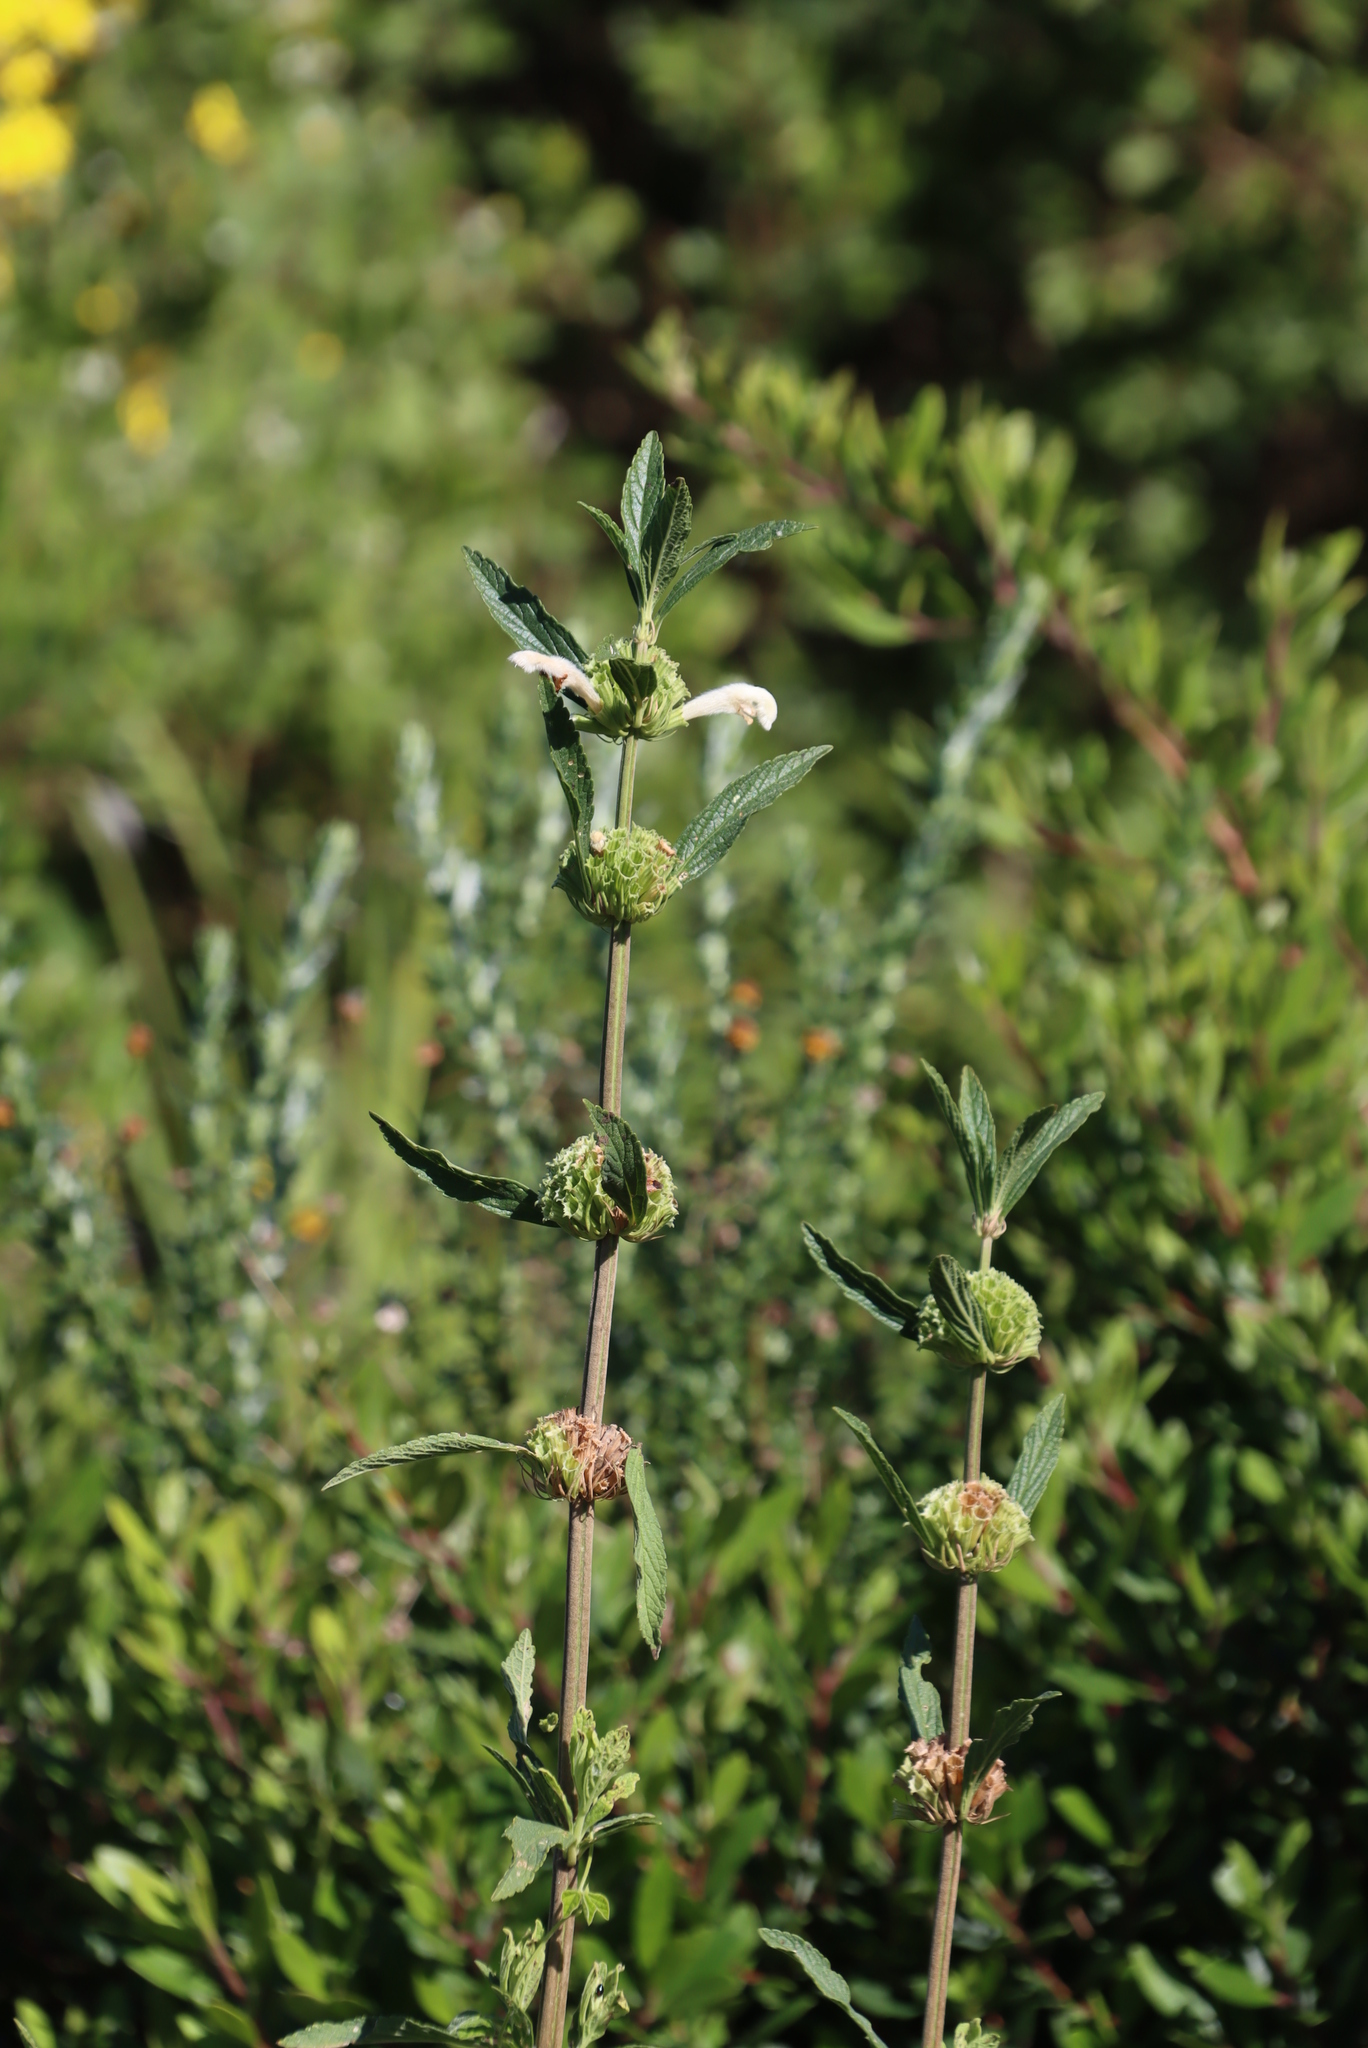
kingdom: Plantae
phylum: Tracheophyta
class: Magnoliopsida
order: Lamiales
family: Lamiaceae
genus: Leonotis
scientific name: Leonotis leonurus
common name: Lion's ear
